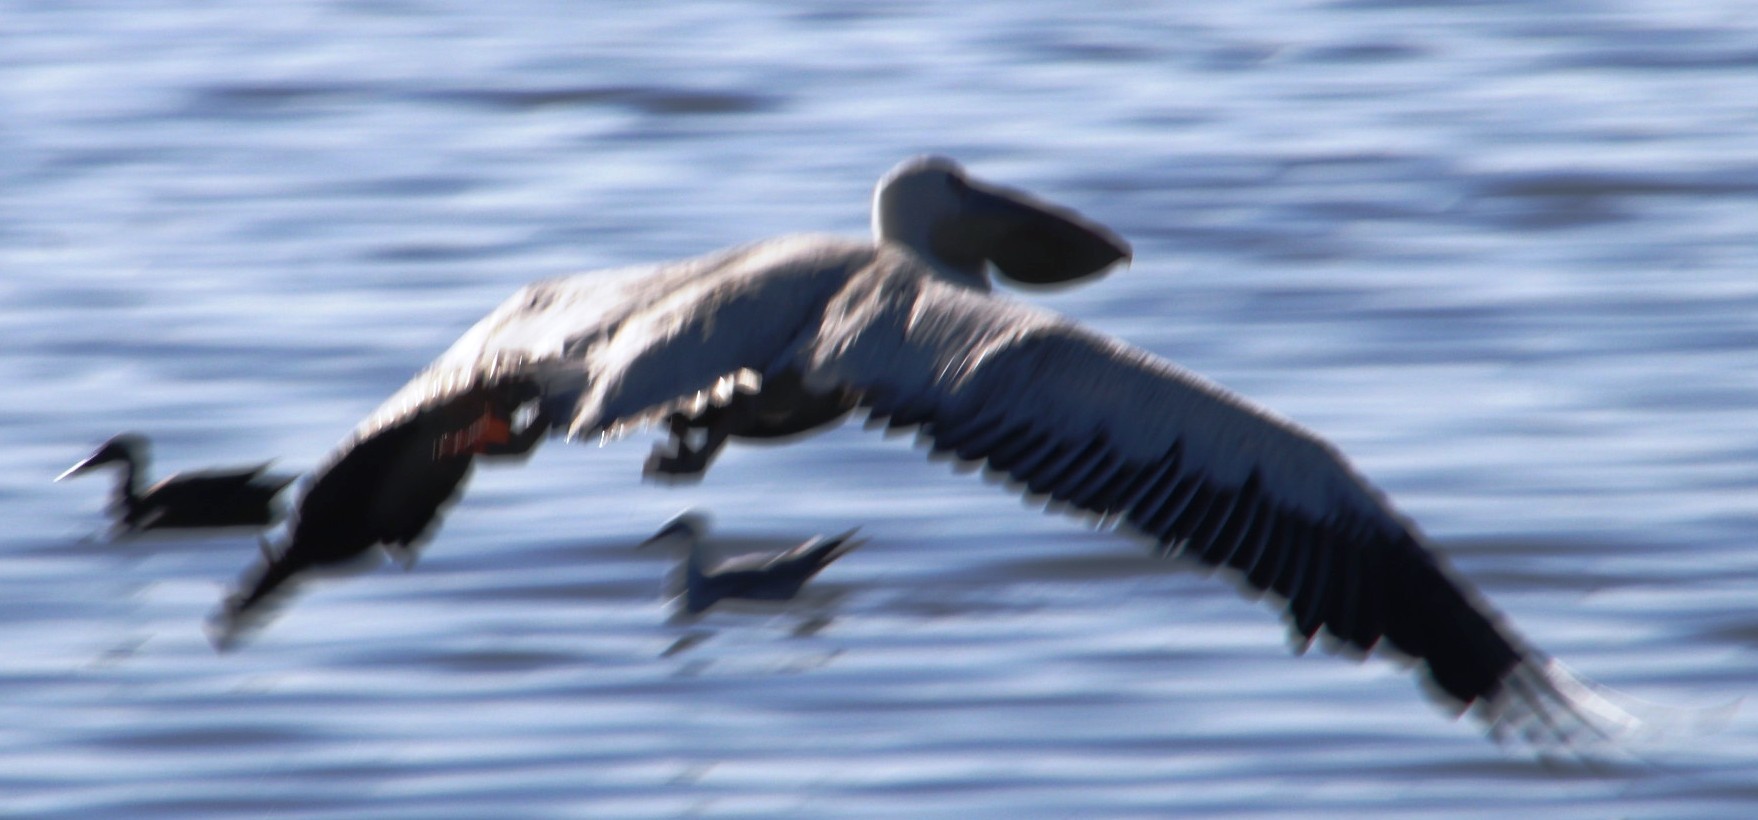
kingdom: Animalia
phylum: Chordata
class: Aves
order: Pelecaniformes
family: Pelecanidae
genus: Pelecanus
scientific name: Pelecanus onocrotalus
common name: Great white pelican
